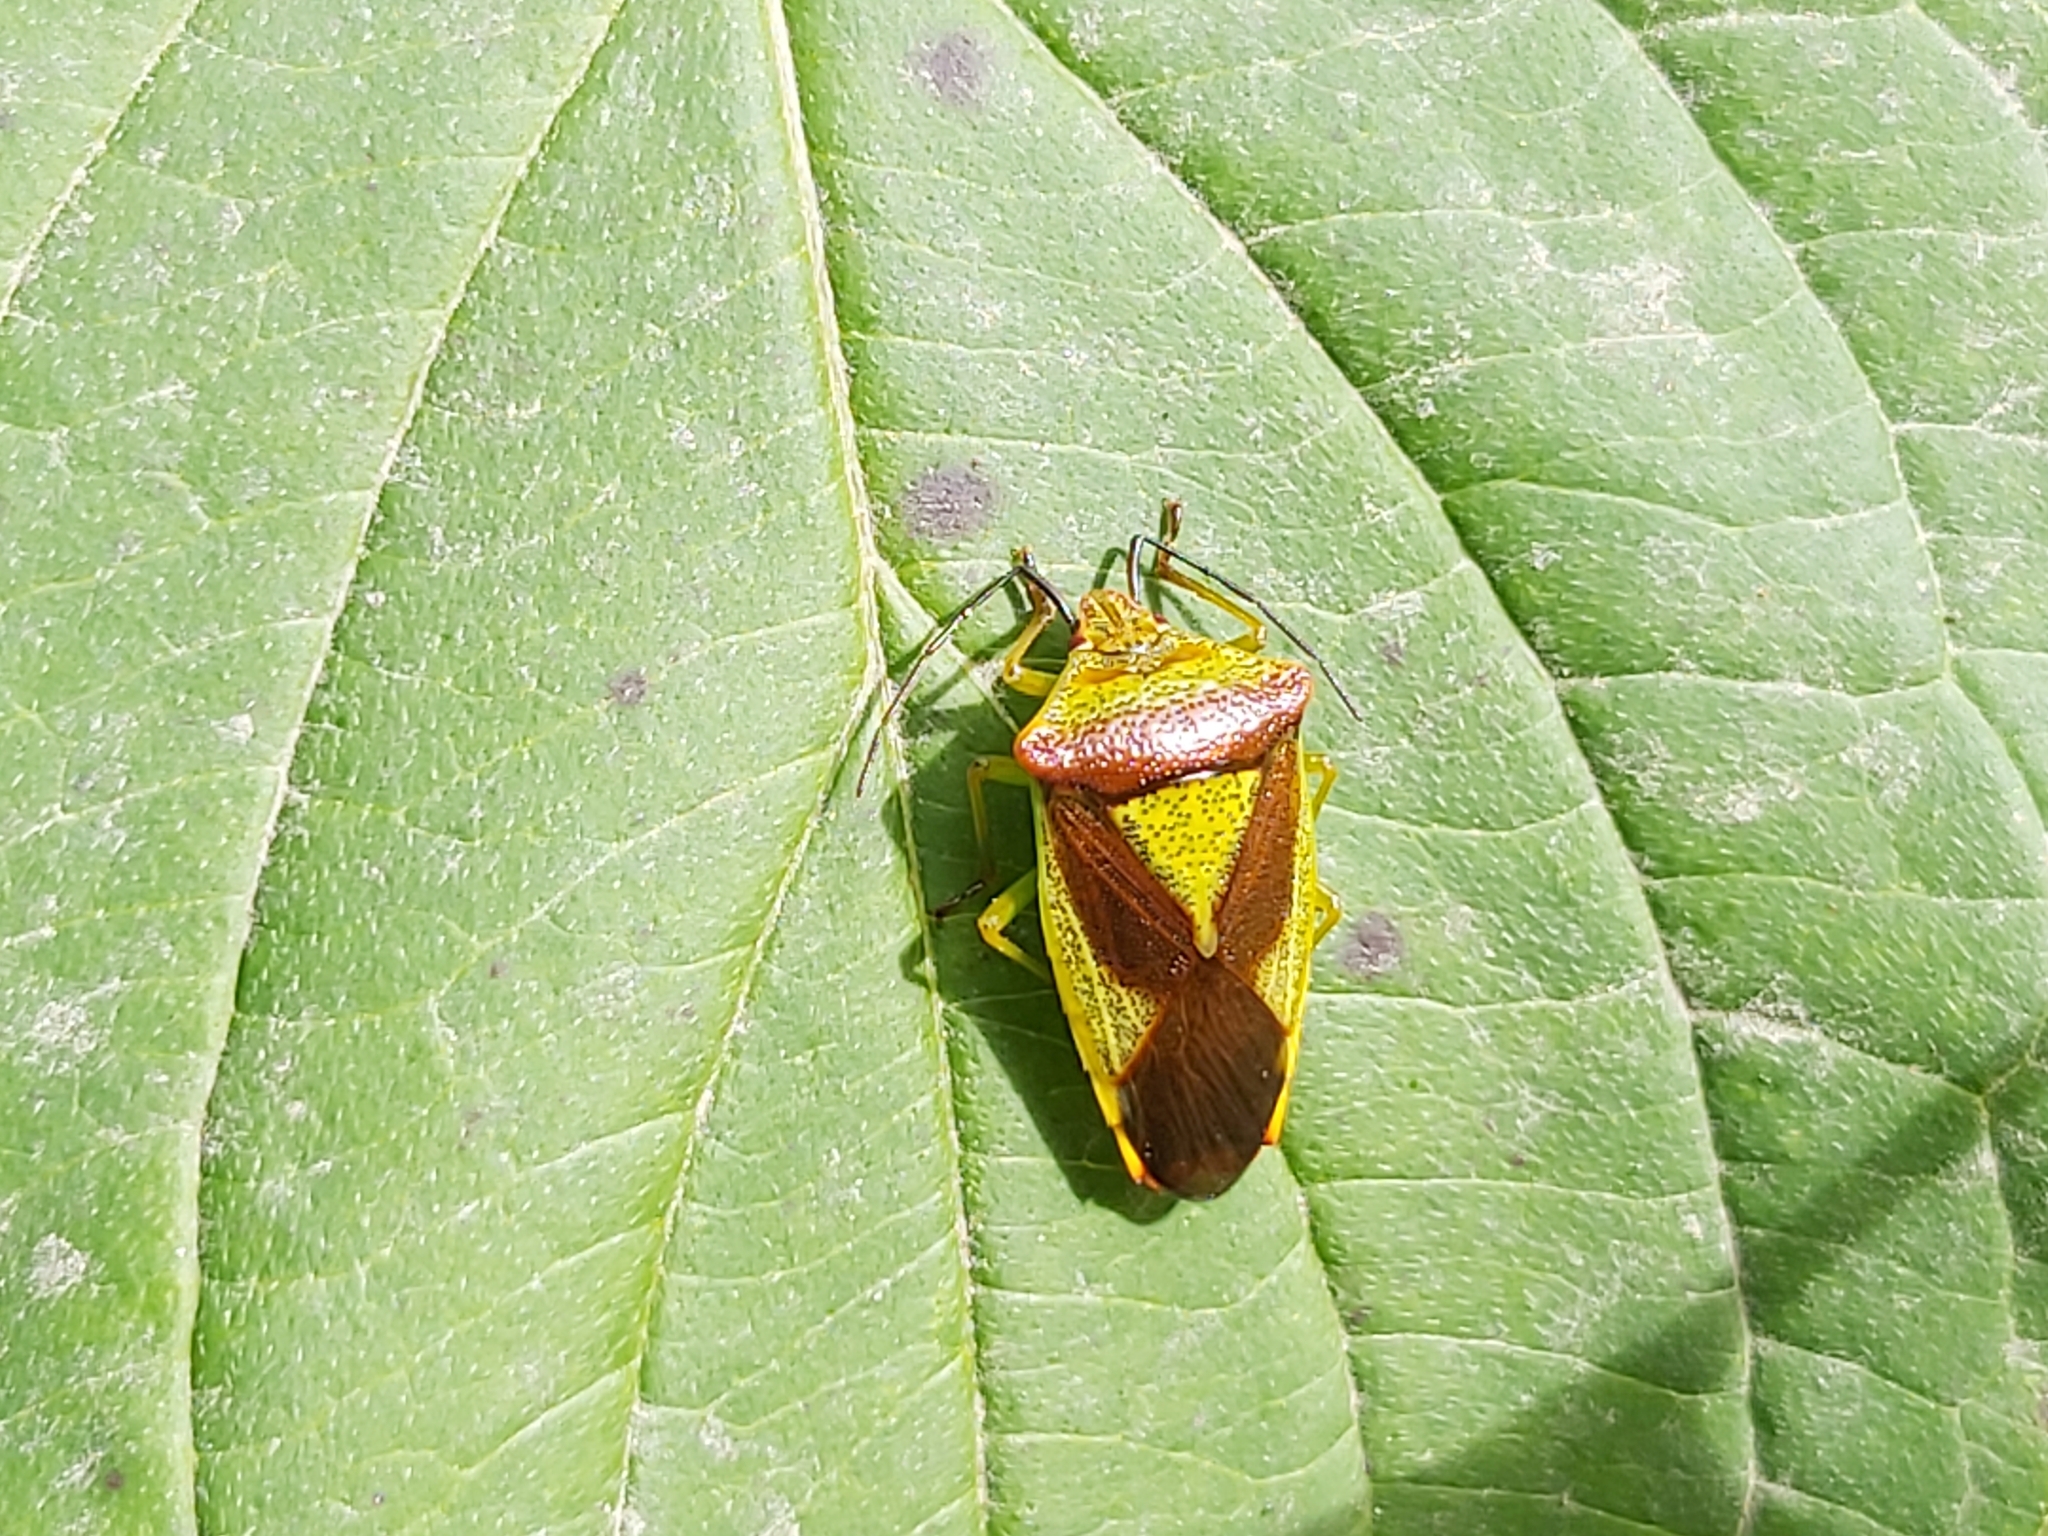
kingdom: Animalia
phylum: Arthropoda
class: Insecta
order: Hemiptera
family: Acanthosomatidae
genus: Acanthosoma
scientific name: Acanthosoma haemorrhoidale
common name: Hawthorn shieldbug
